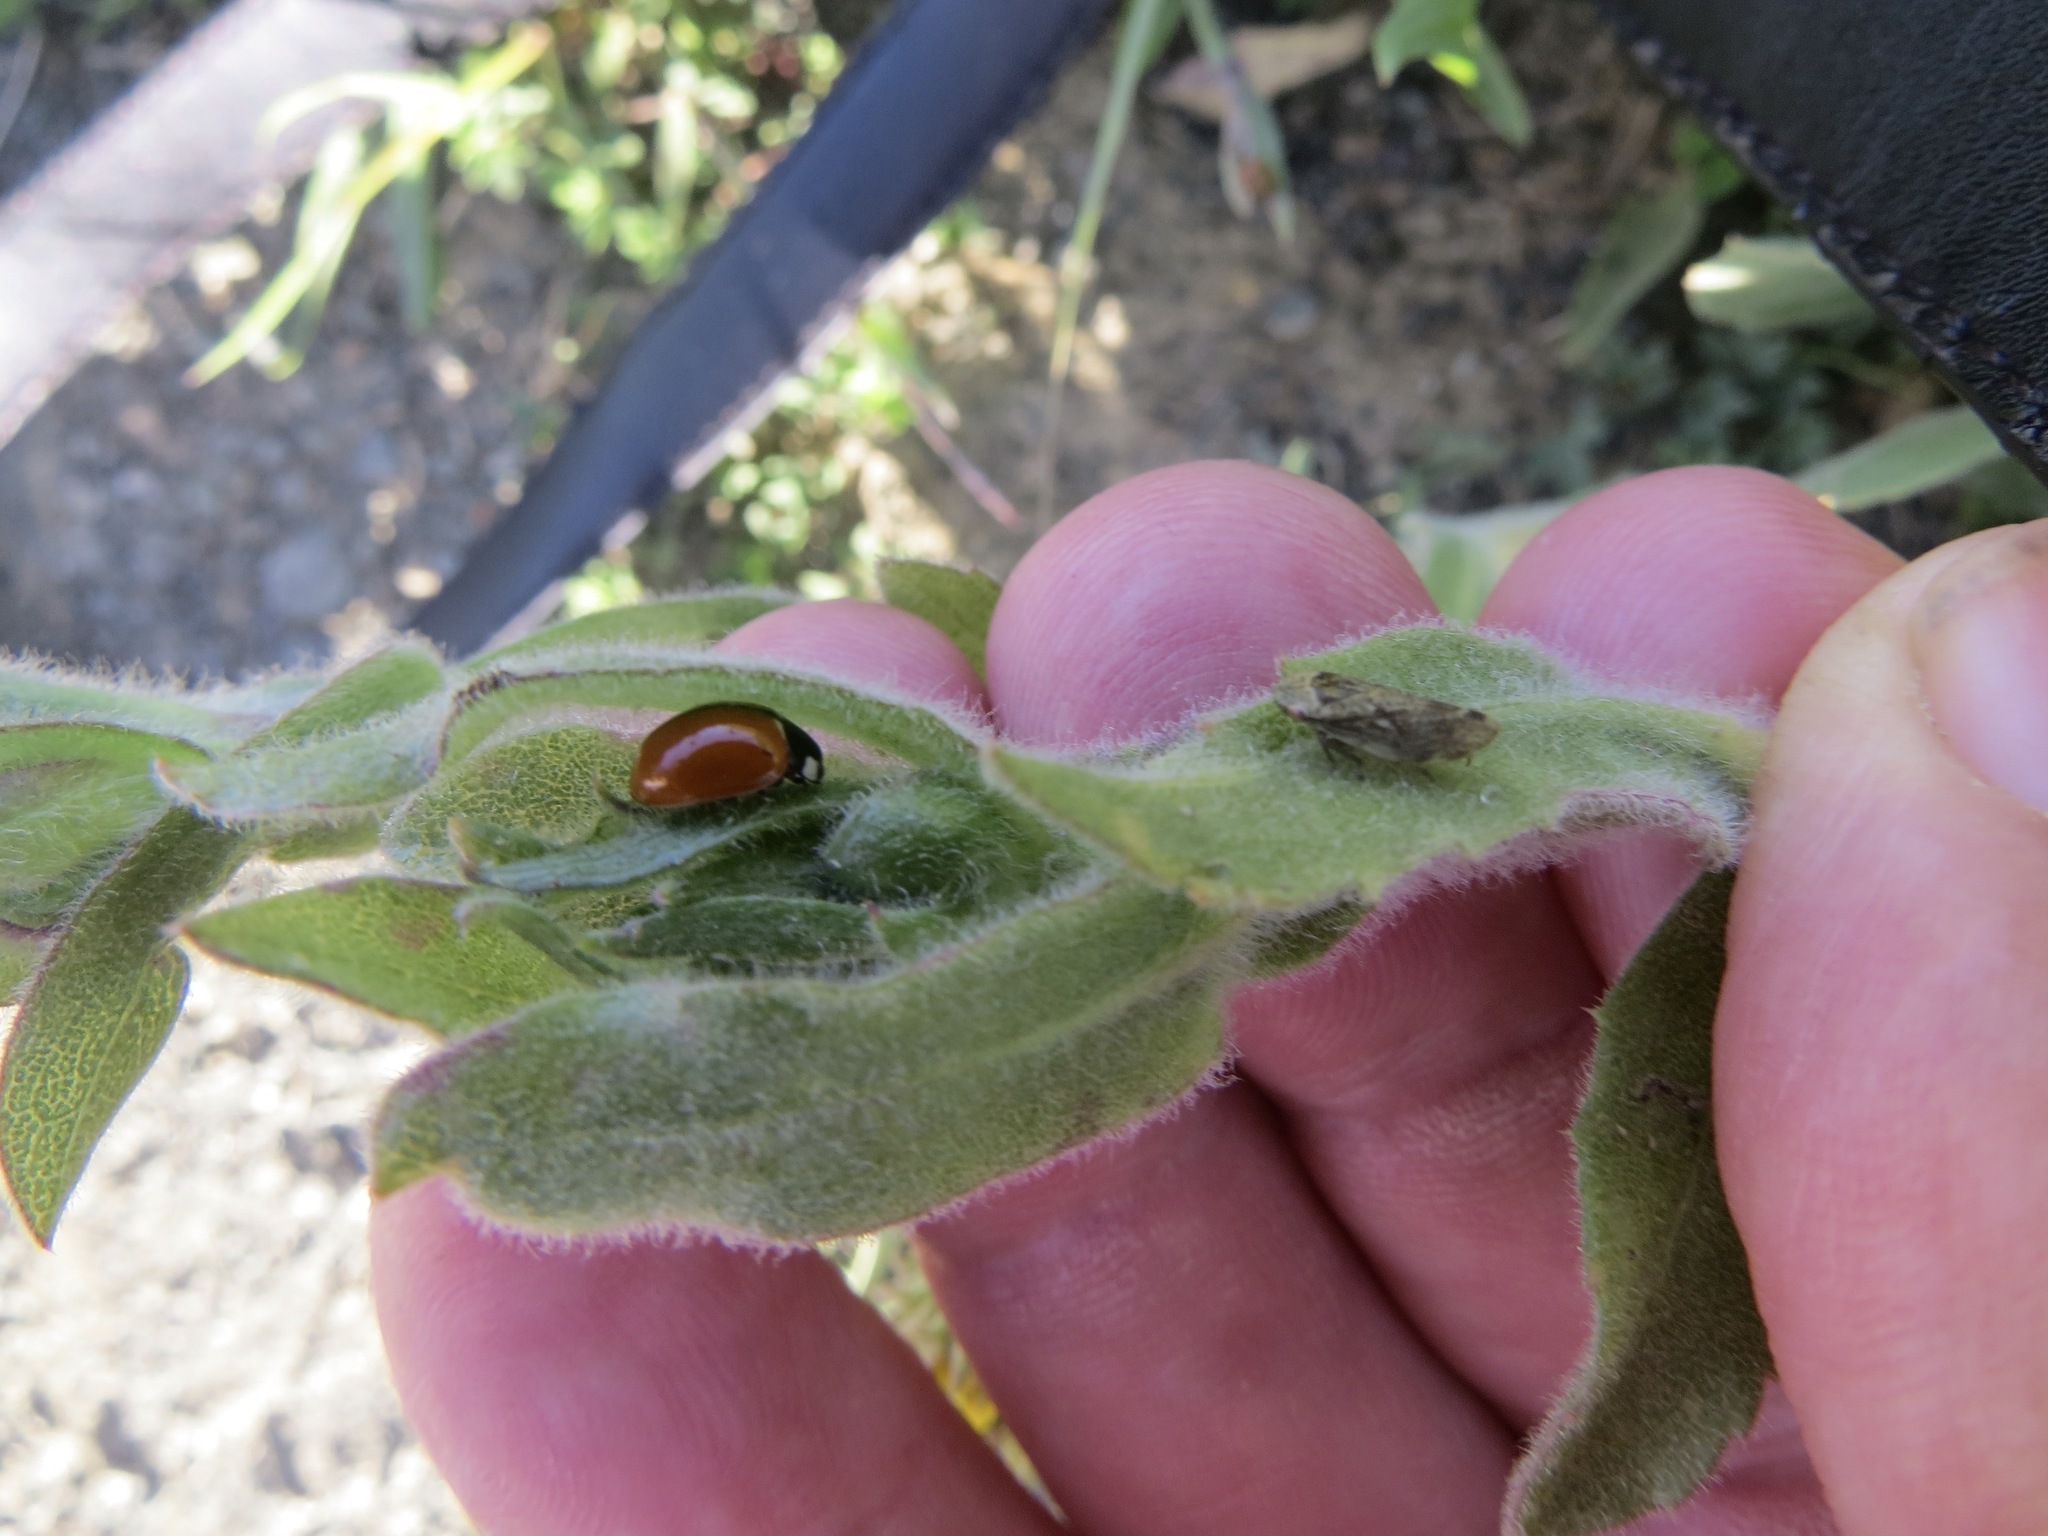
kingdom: Animalia
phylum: Arthropoda
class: Insecta
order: Hemiptera
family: Aphrophoridae
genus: Philaenus
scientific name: Philaenus spumarius
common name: Meadow spittlebug
